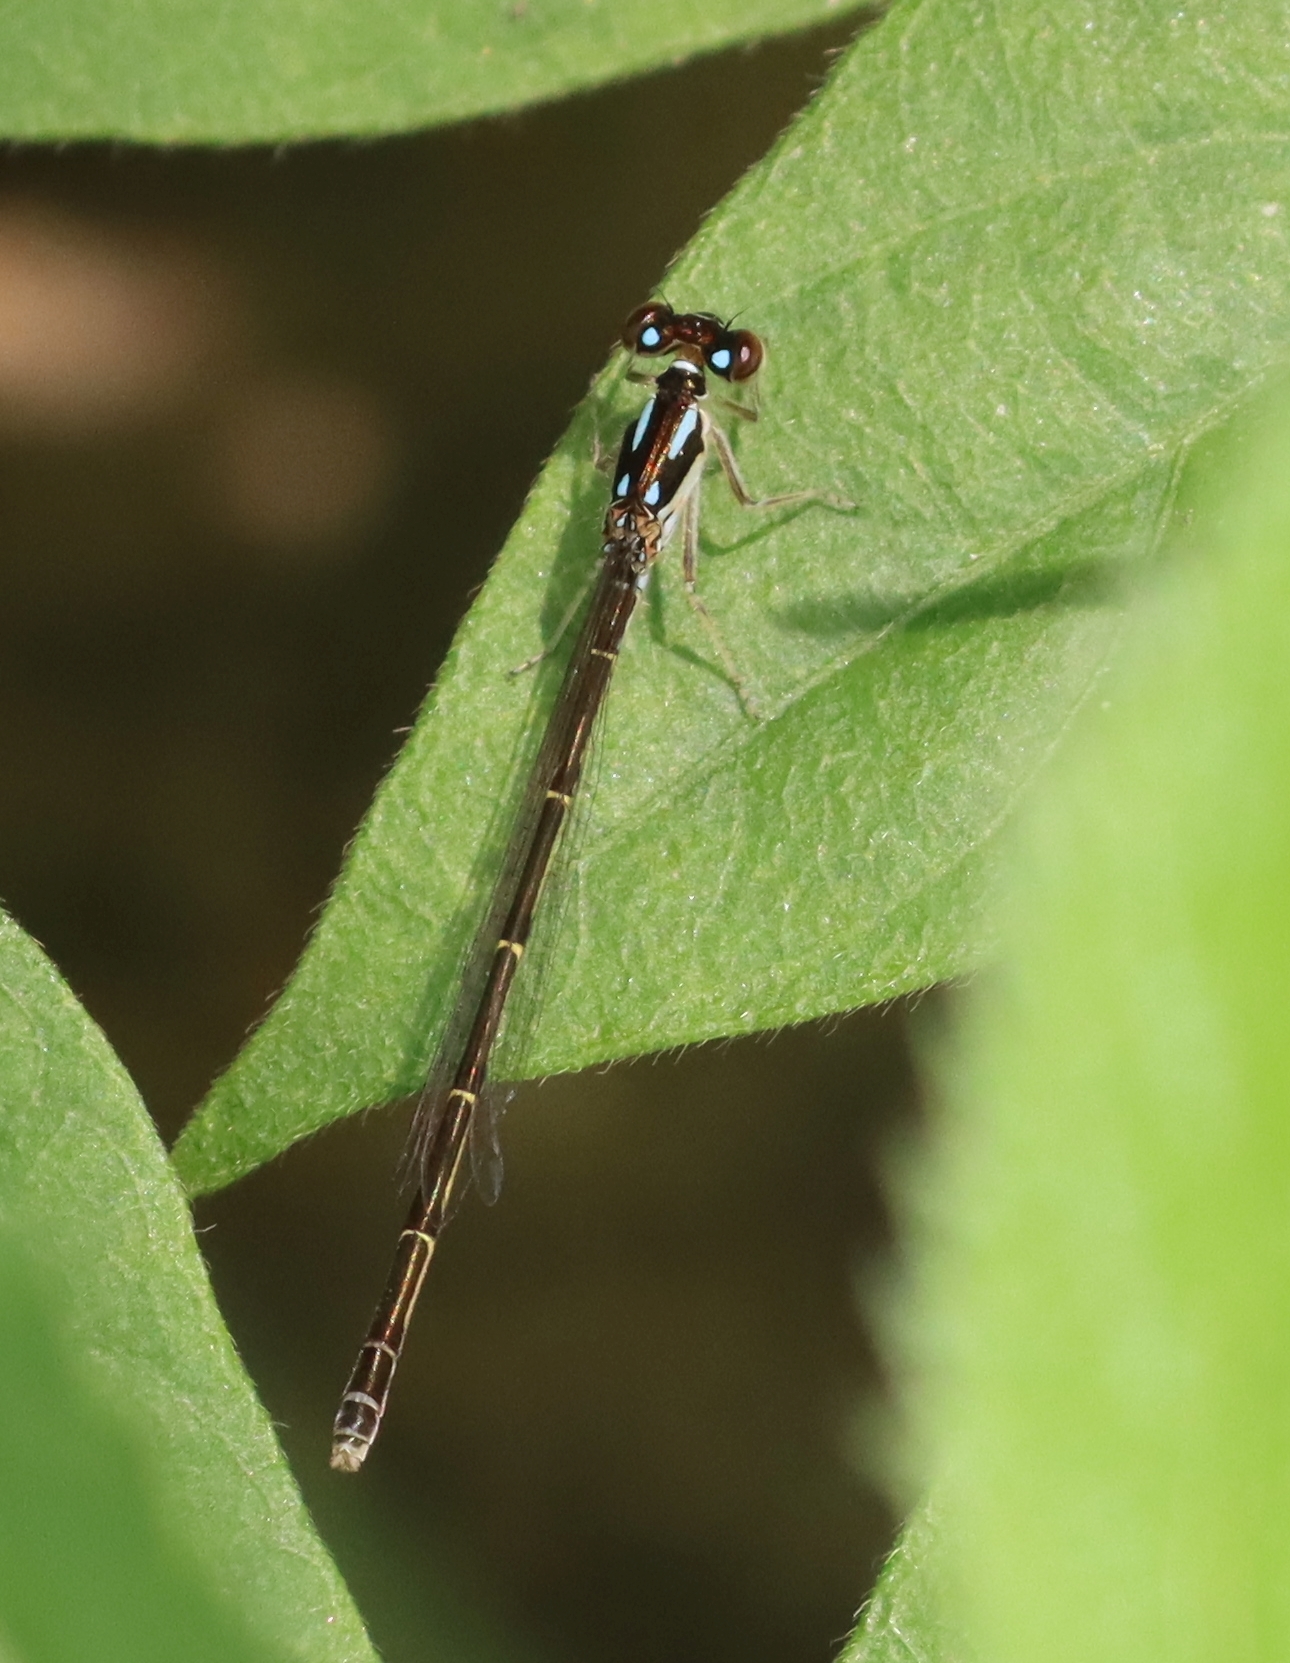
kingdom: Animalia
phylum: Arthropoda
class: Insecta
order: Odonata
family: Coenagrionidae
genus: Ischnura
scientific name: Ischnura posita
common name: Fragile forktail
